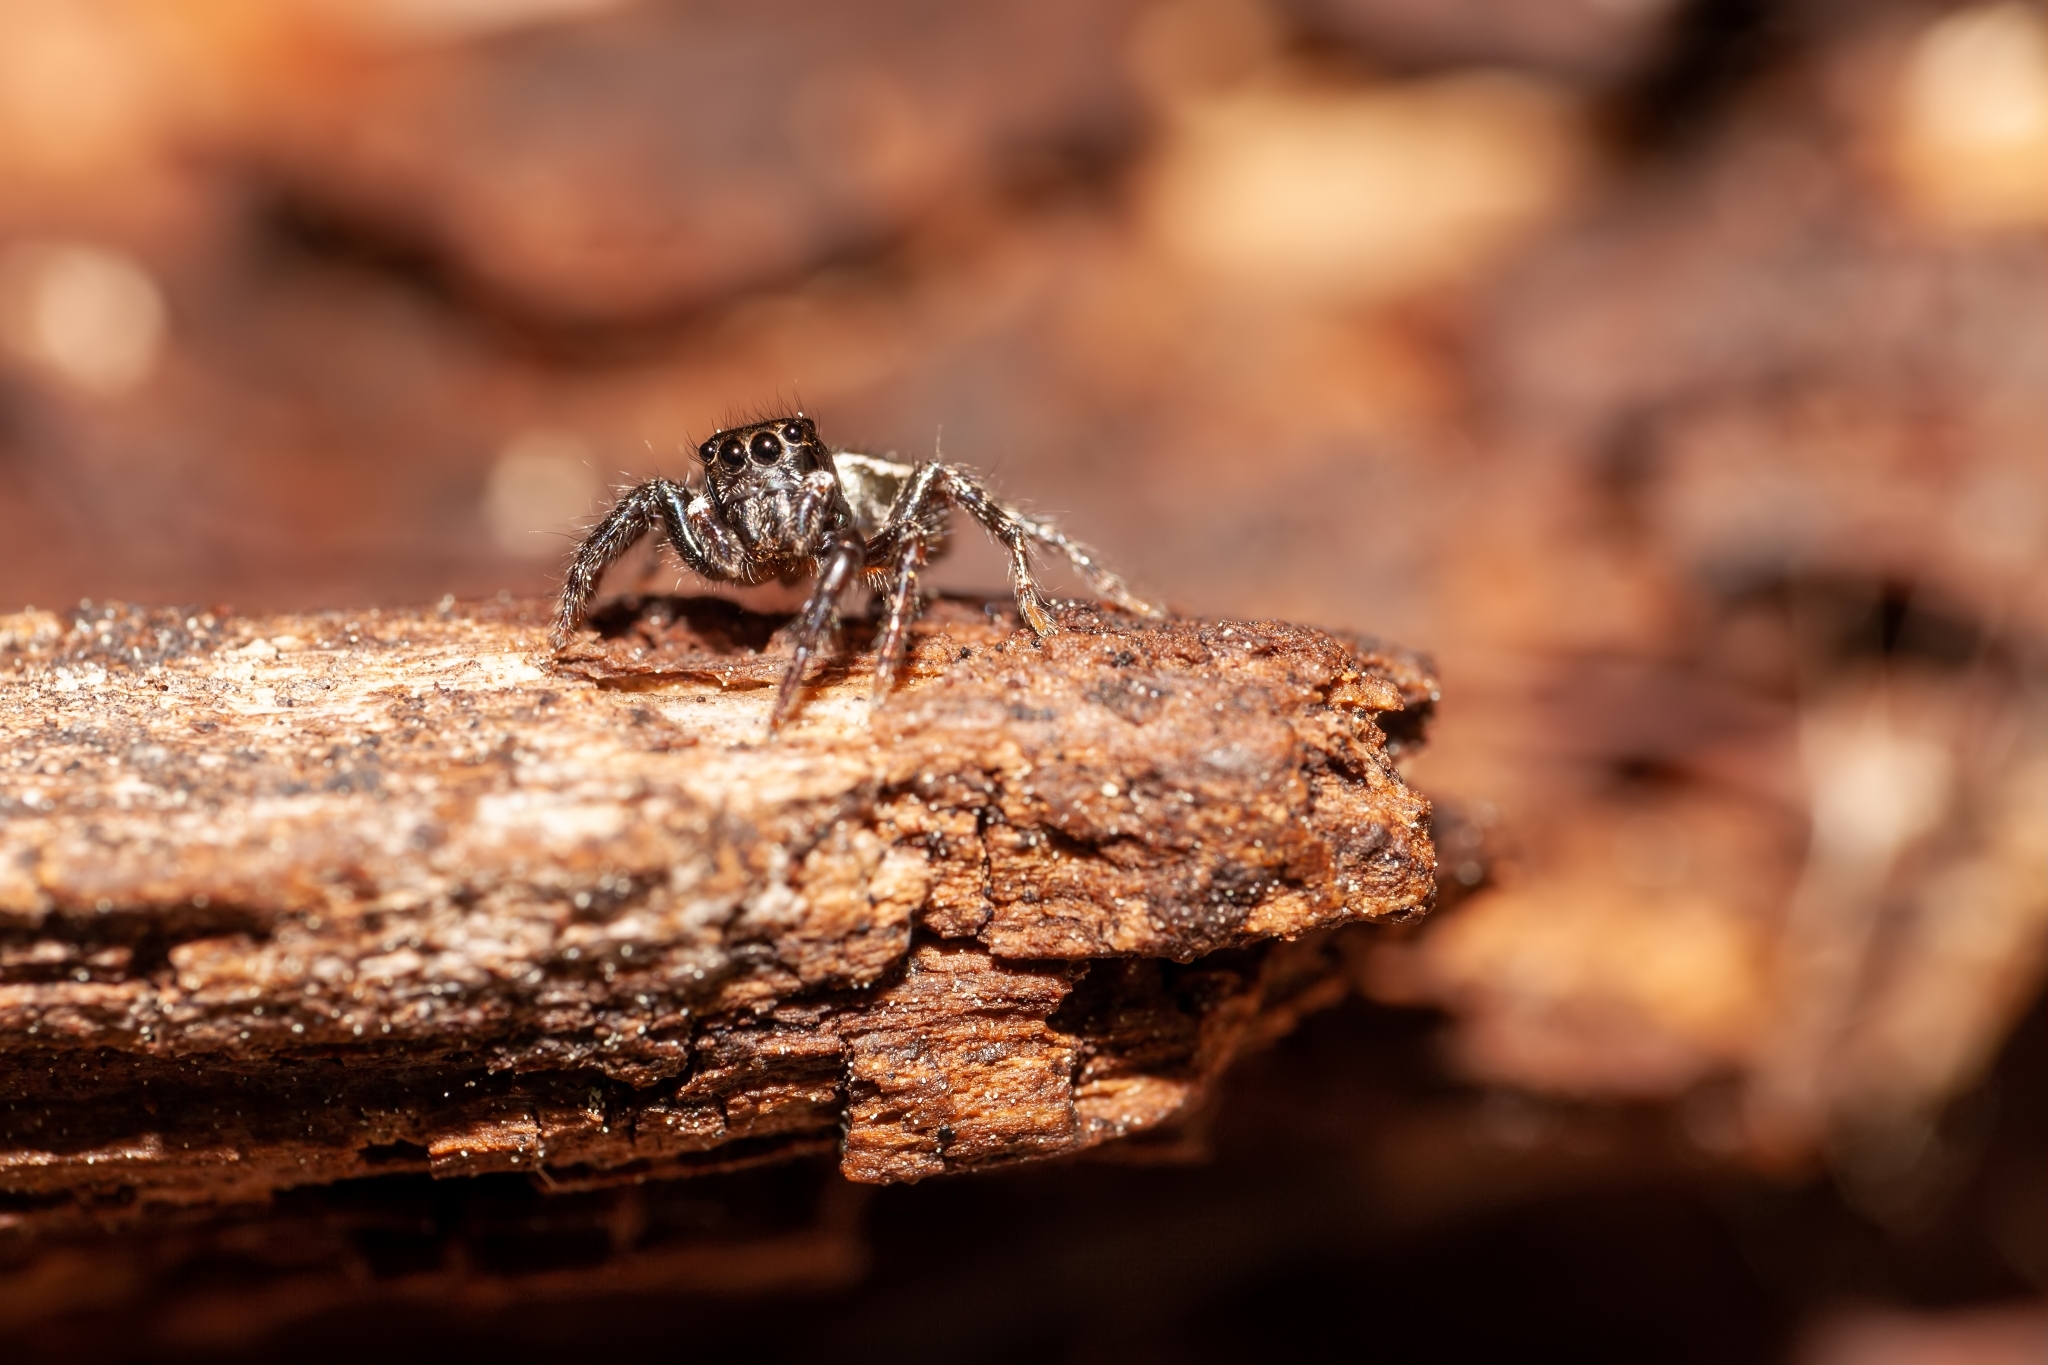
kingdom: Animalia
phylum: Arthropoda
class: Arachnida
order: Araneae
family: Salticidae
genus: Anasaitis
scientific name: Anasaitis canosa
